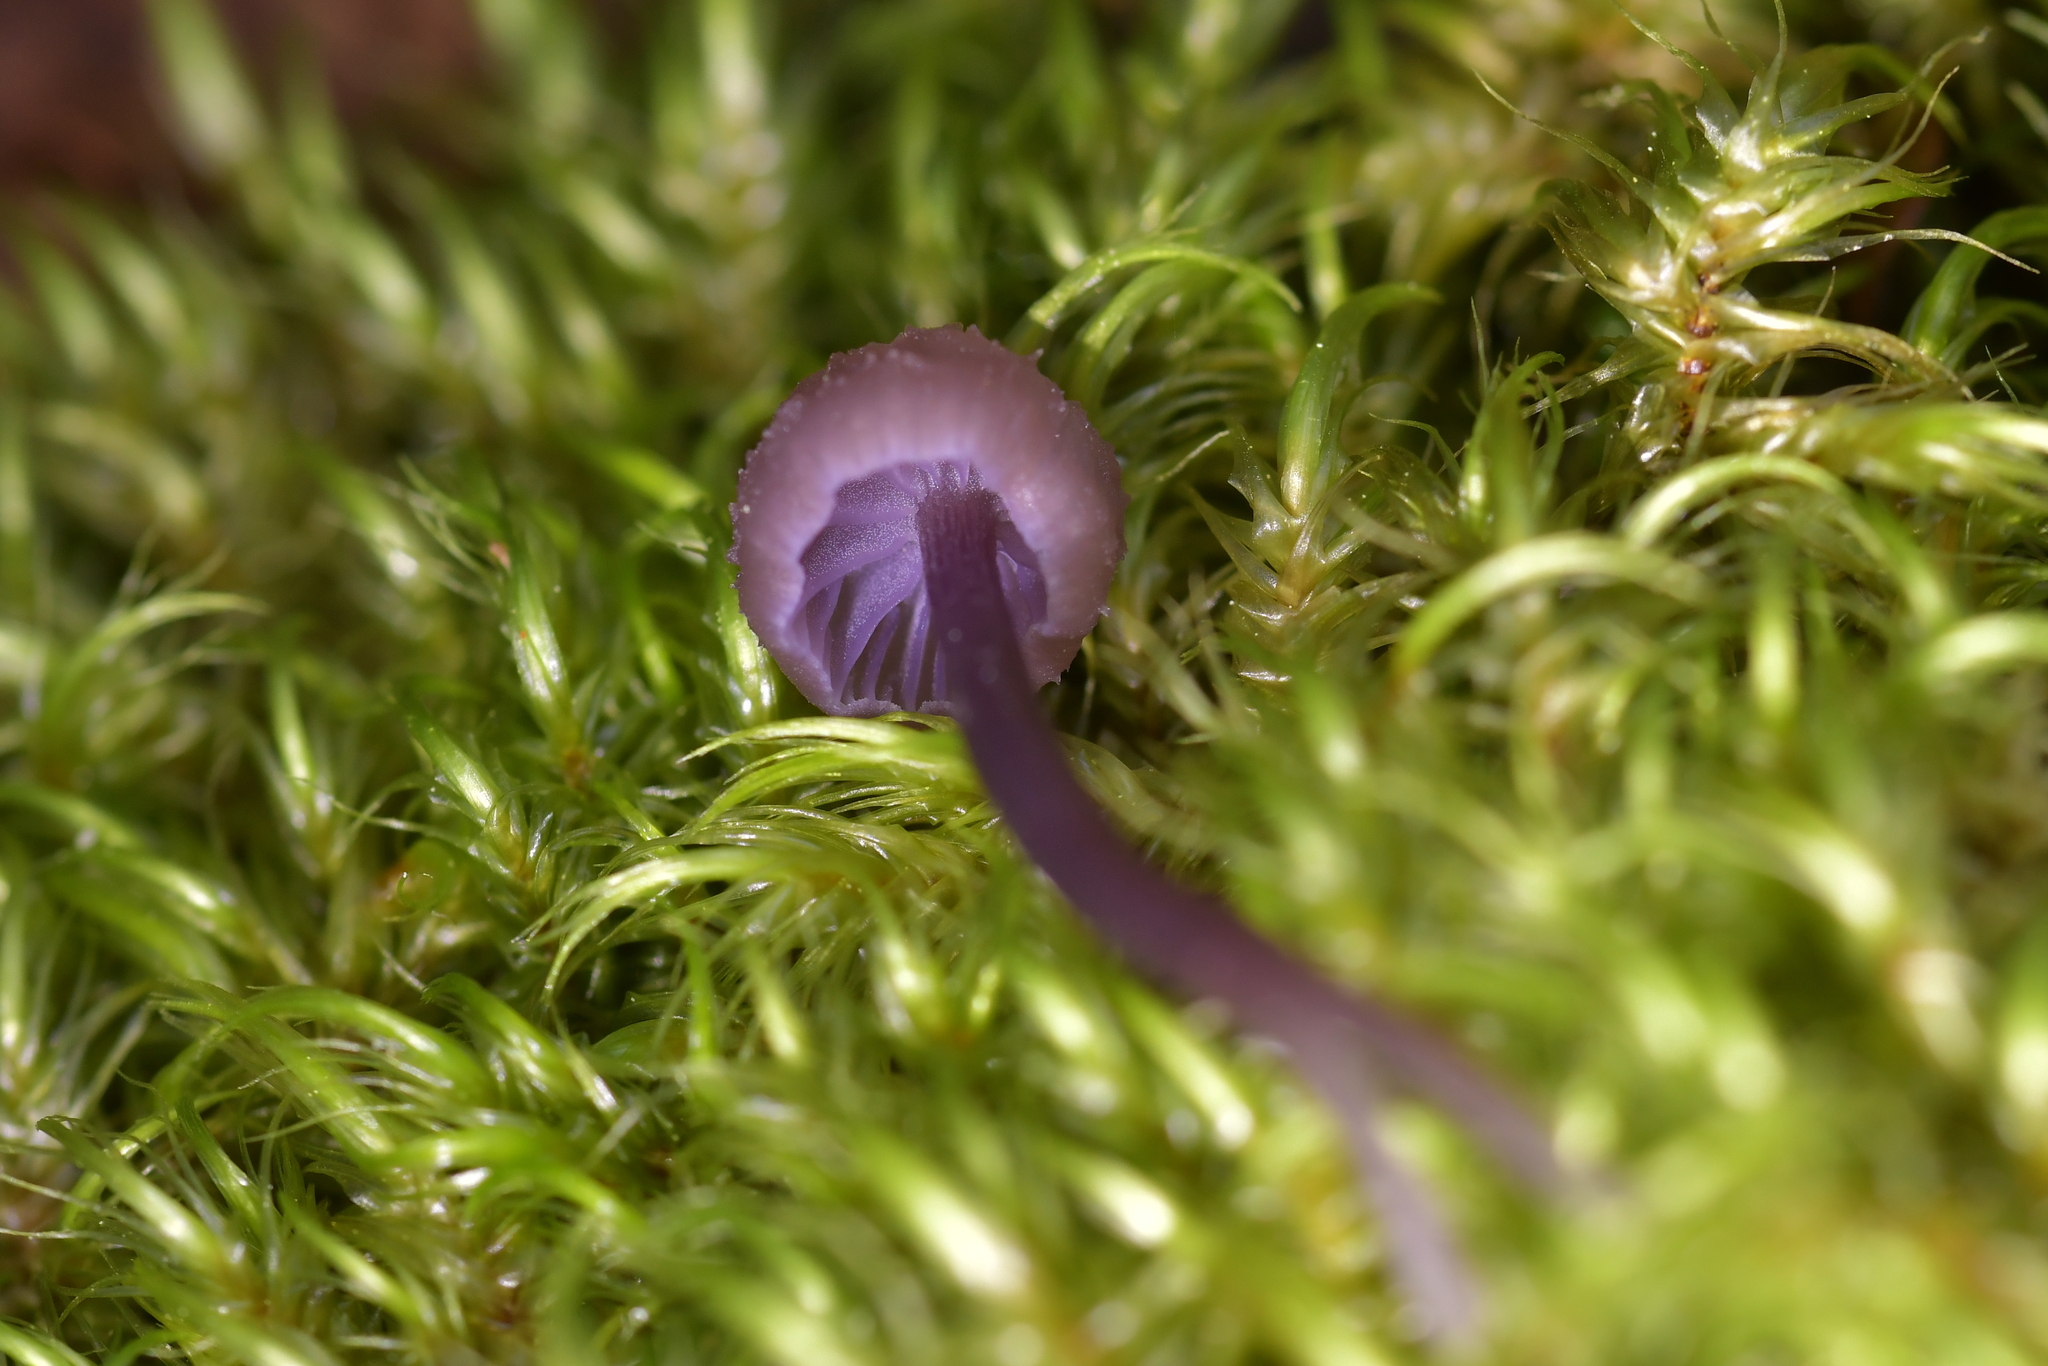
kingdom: Fungi
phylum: Basidiomycota
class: Agaricomycetes
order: Agaricales
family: Hydnangiaceae
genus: Laccaria
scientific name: Laccaria masoniae
